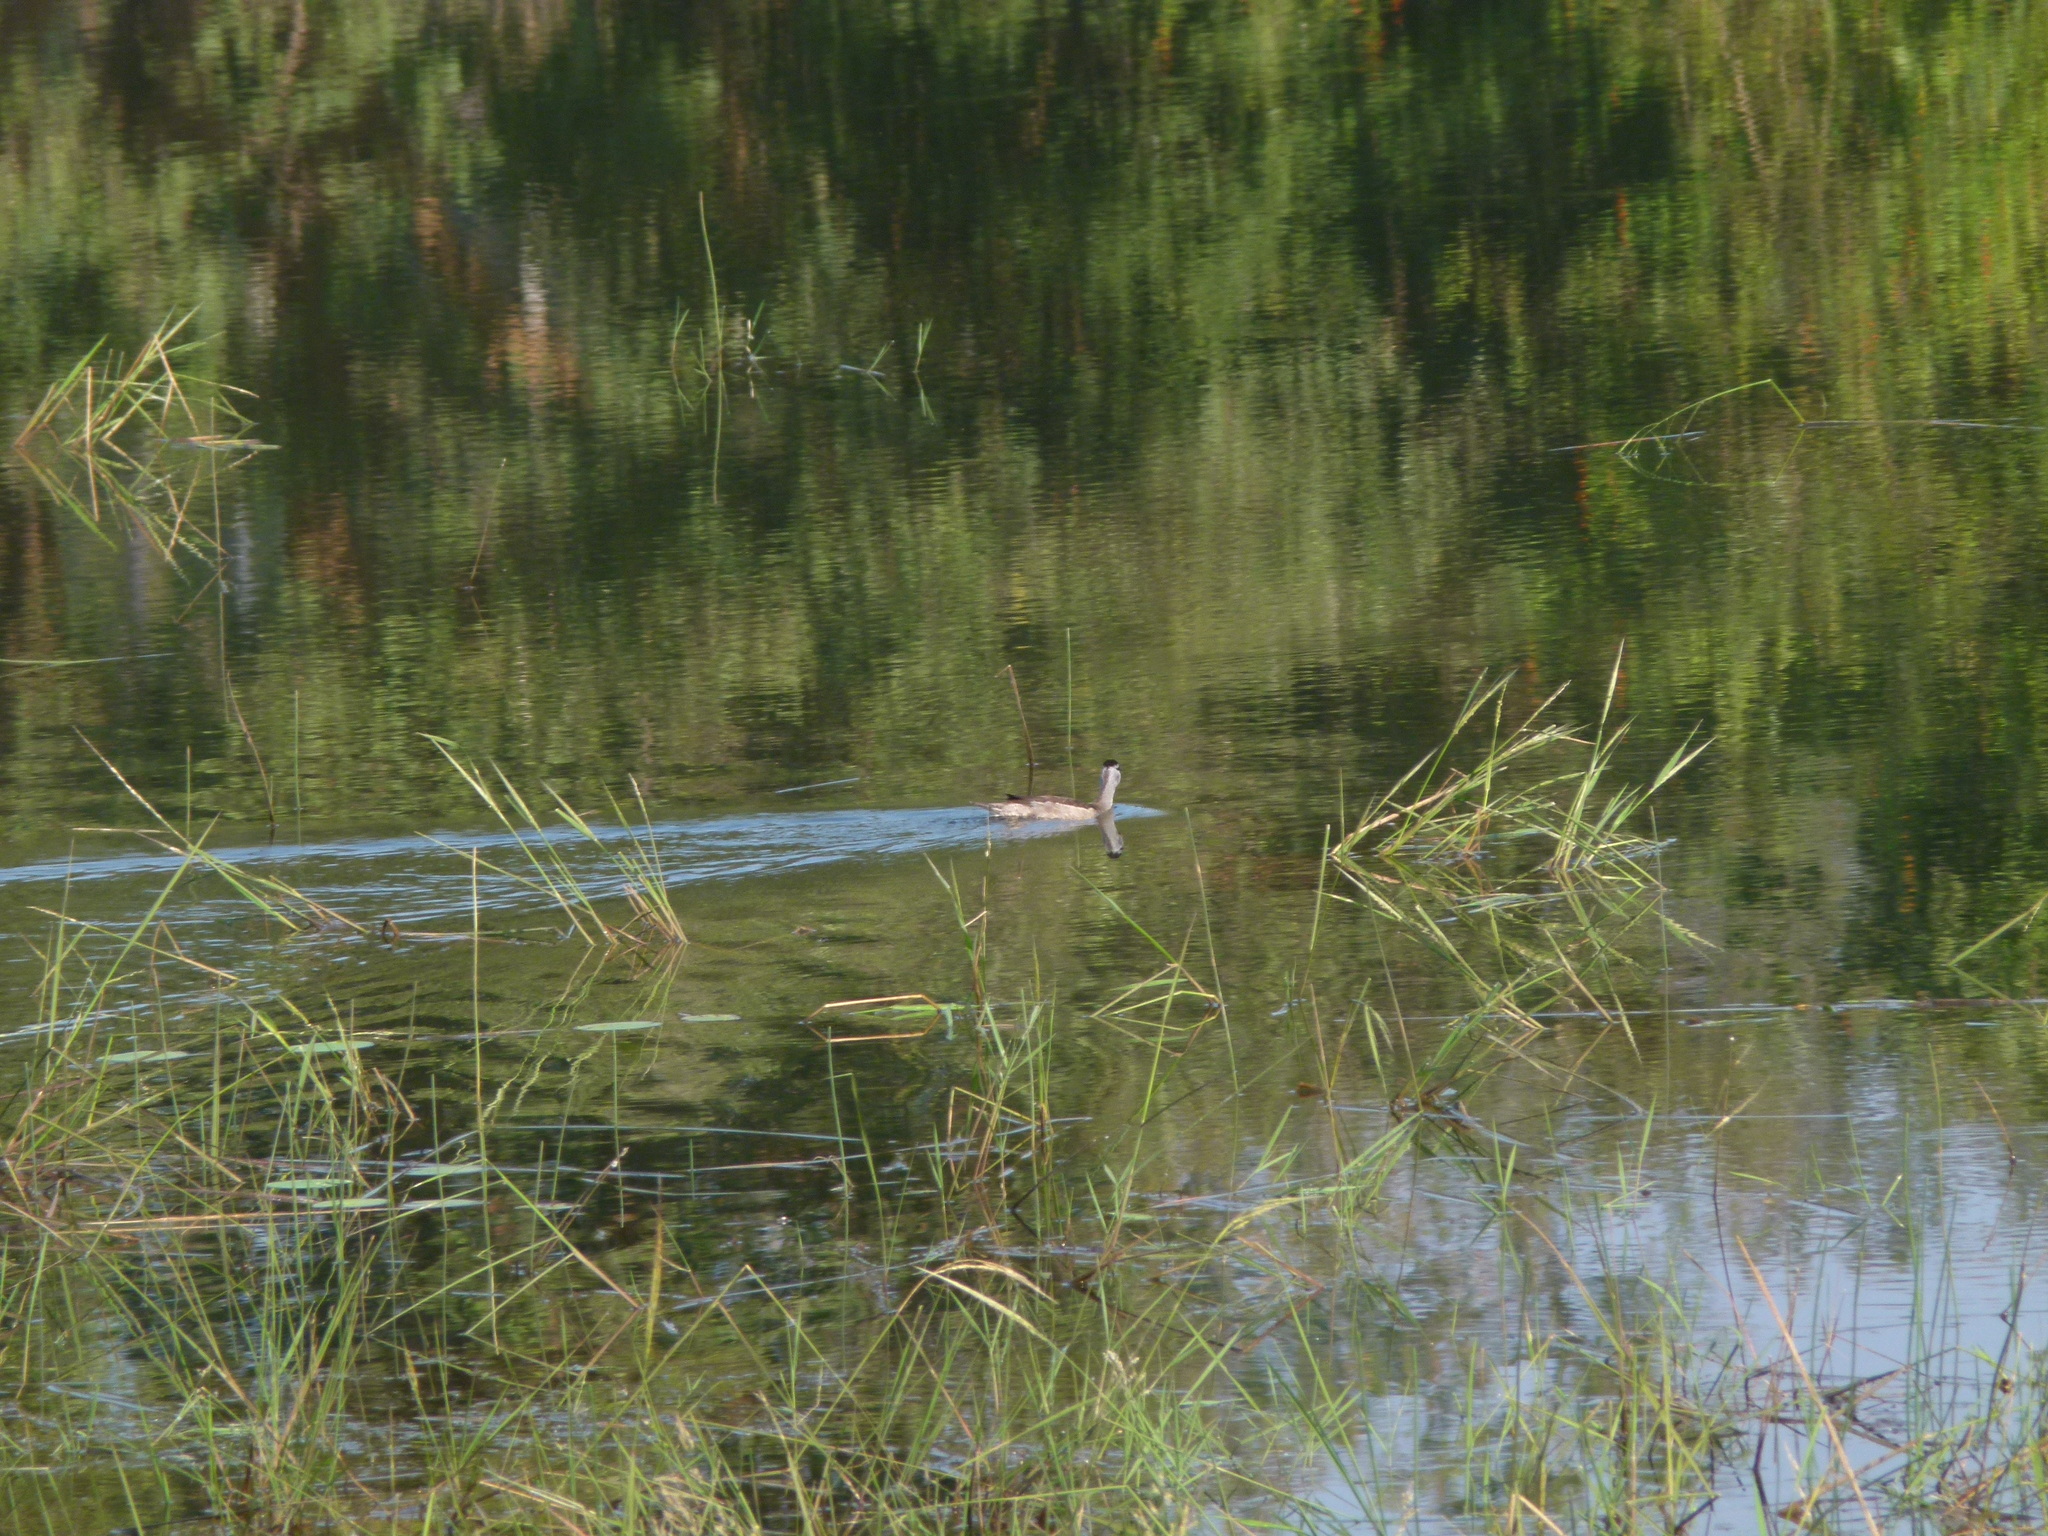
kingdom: Animalia
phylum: Chordata
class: Aves
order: Anseriformes
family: Anatidae
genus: Nettapus
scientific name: Nettapus coromandelianus
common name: Cotton pygmy-goose
